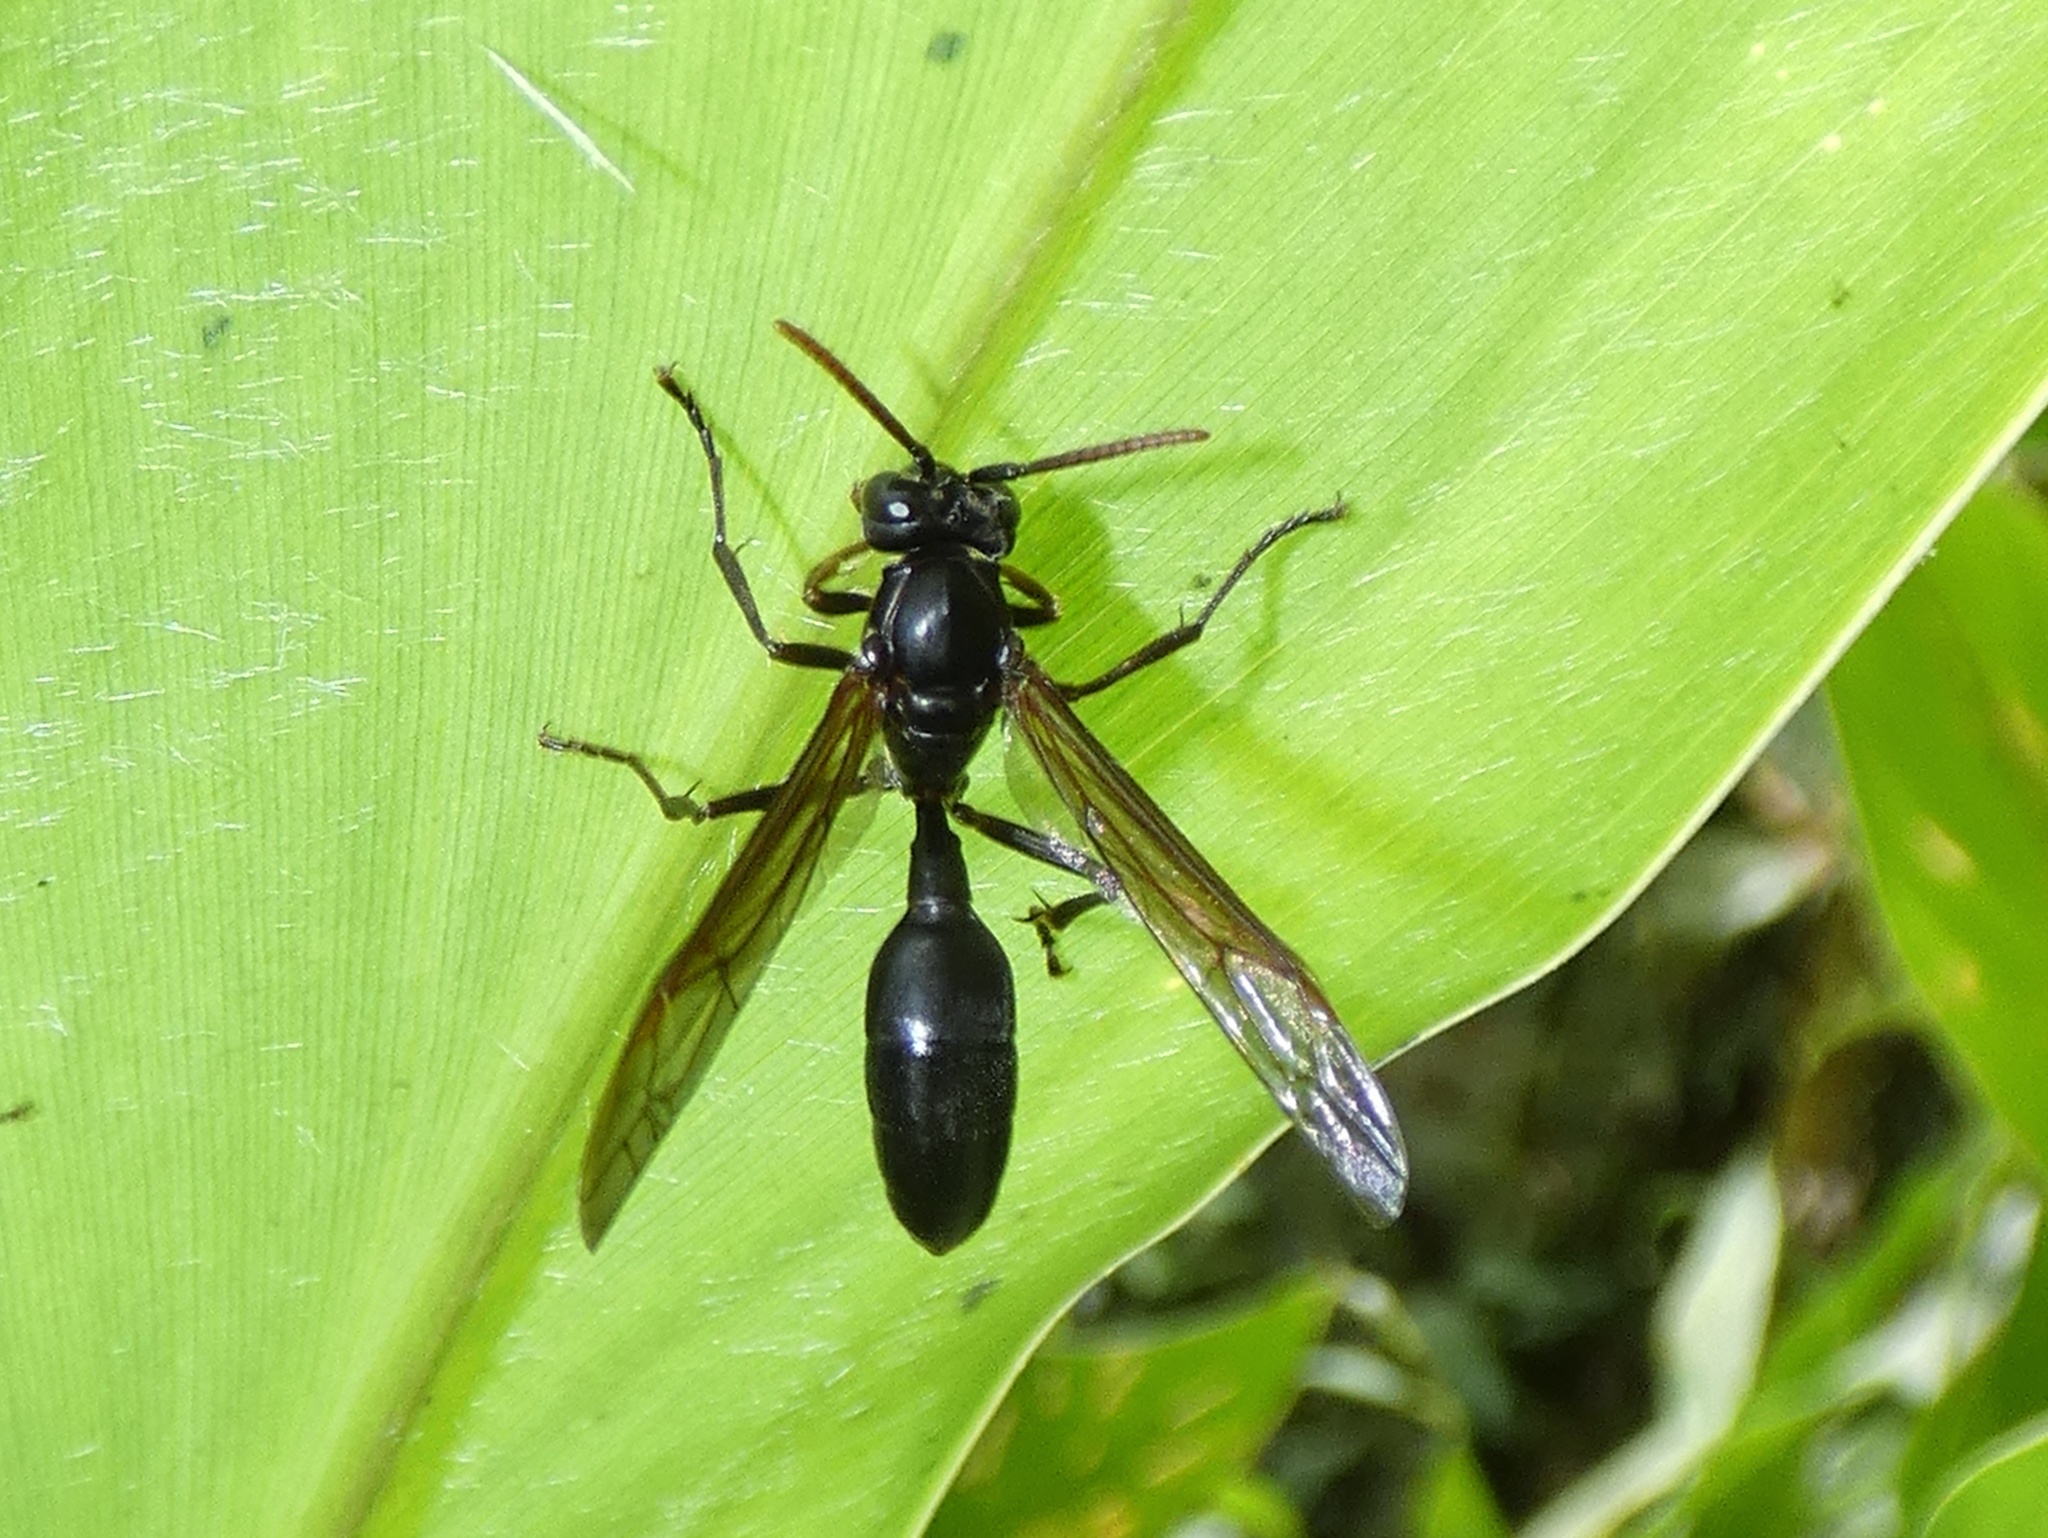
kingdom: Animalia
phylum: Arthropoda
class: Insecta
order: Hymenoptera
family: Vespidae
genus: Agelaia
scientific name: Agelaia panamensis
